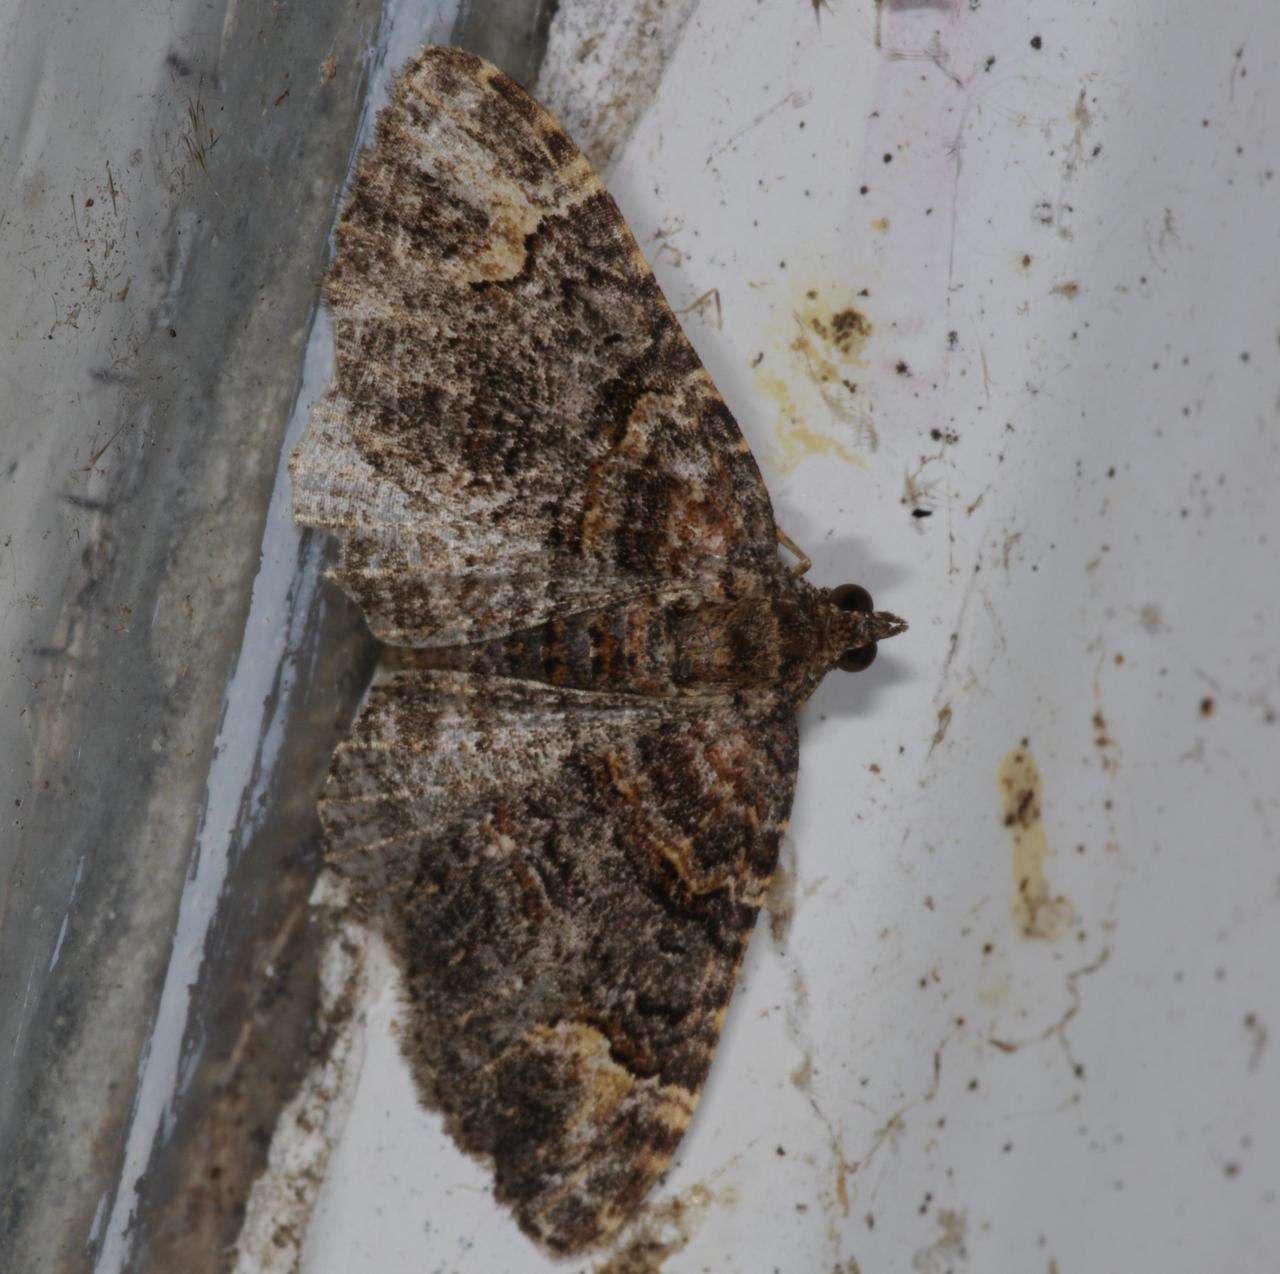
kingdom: Animalia
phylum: Arthropoda
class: Insecta
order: Lepidoptera
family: Geometridae
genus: Epyaxa
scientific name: Epyaxa sodaliata
